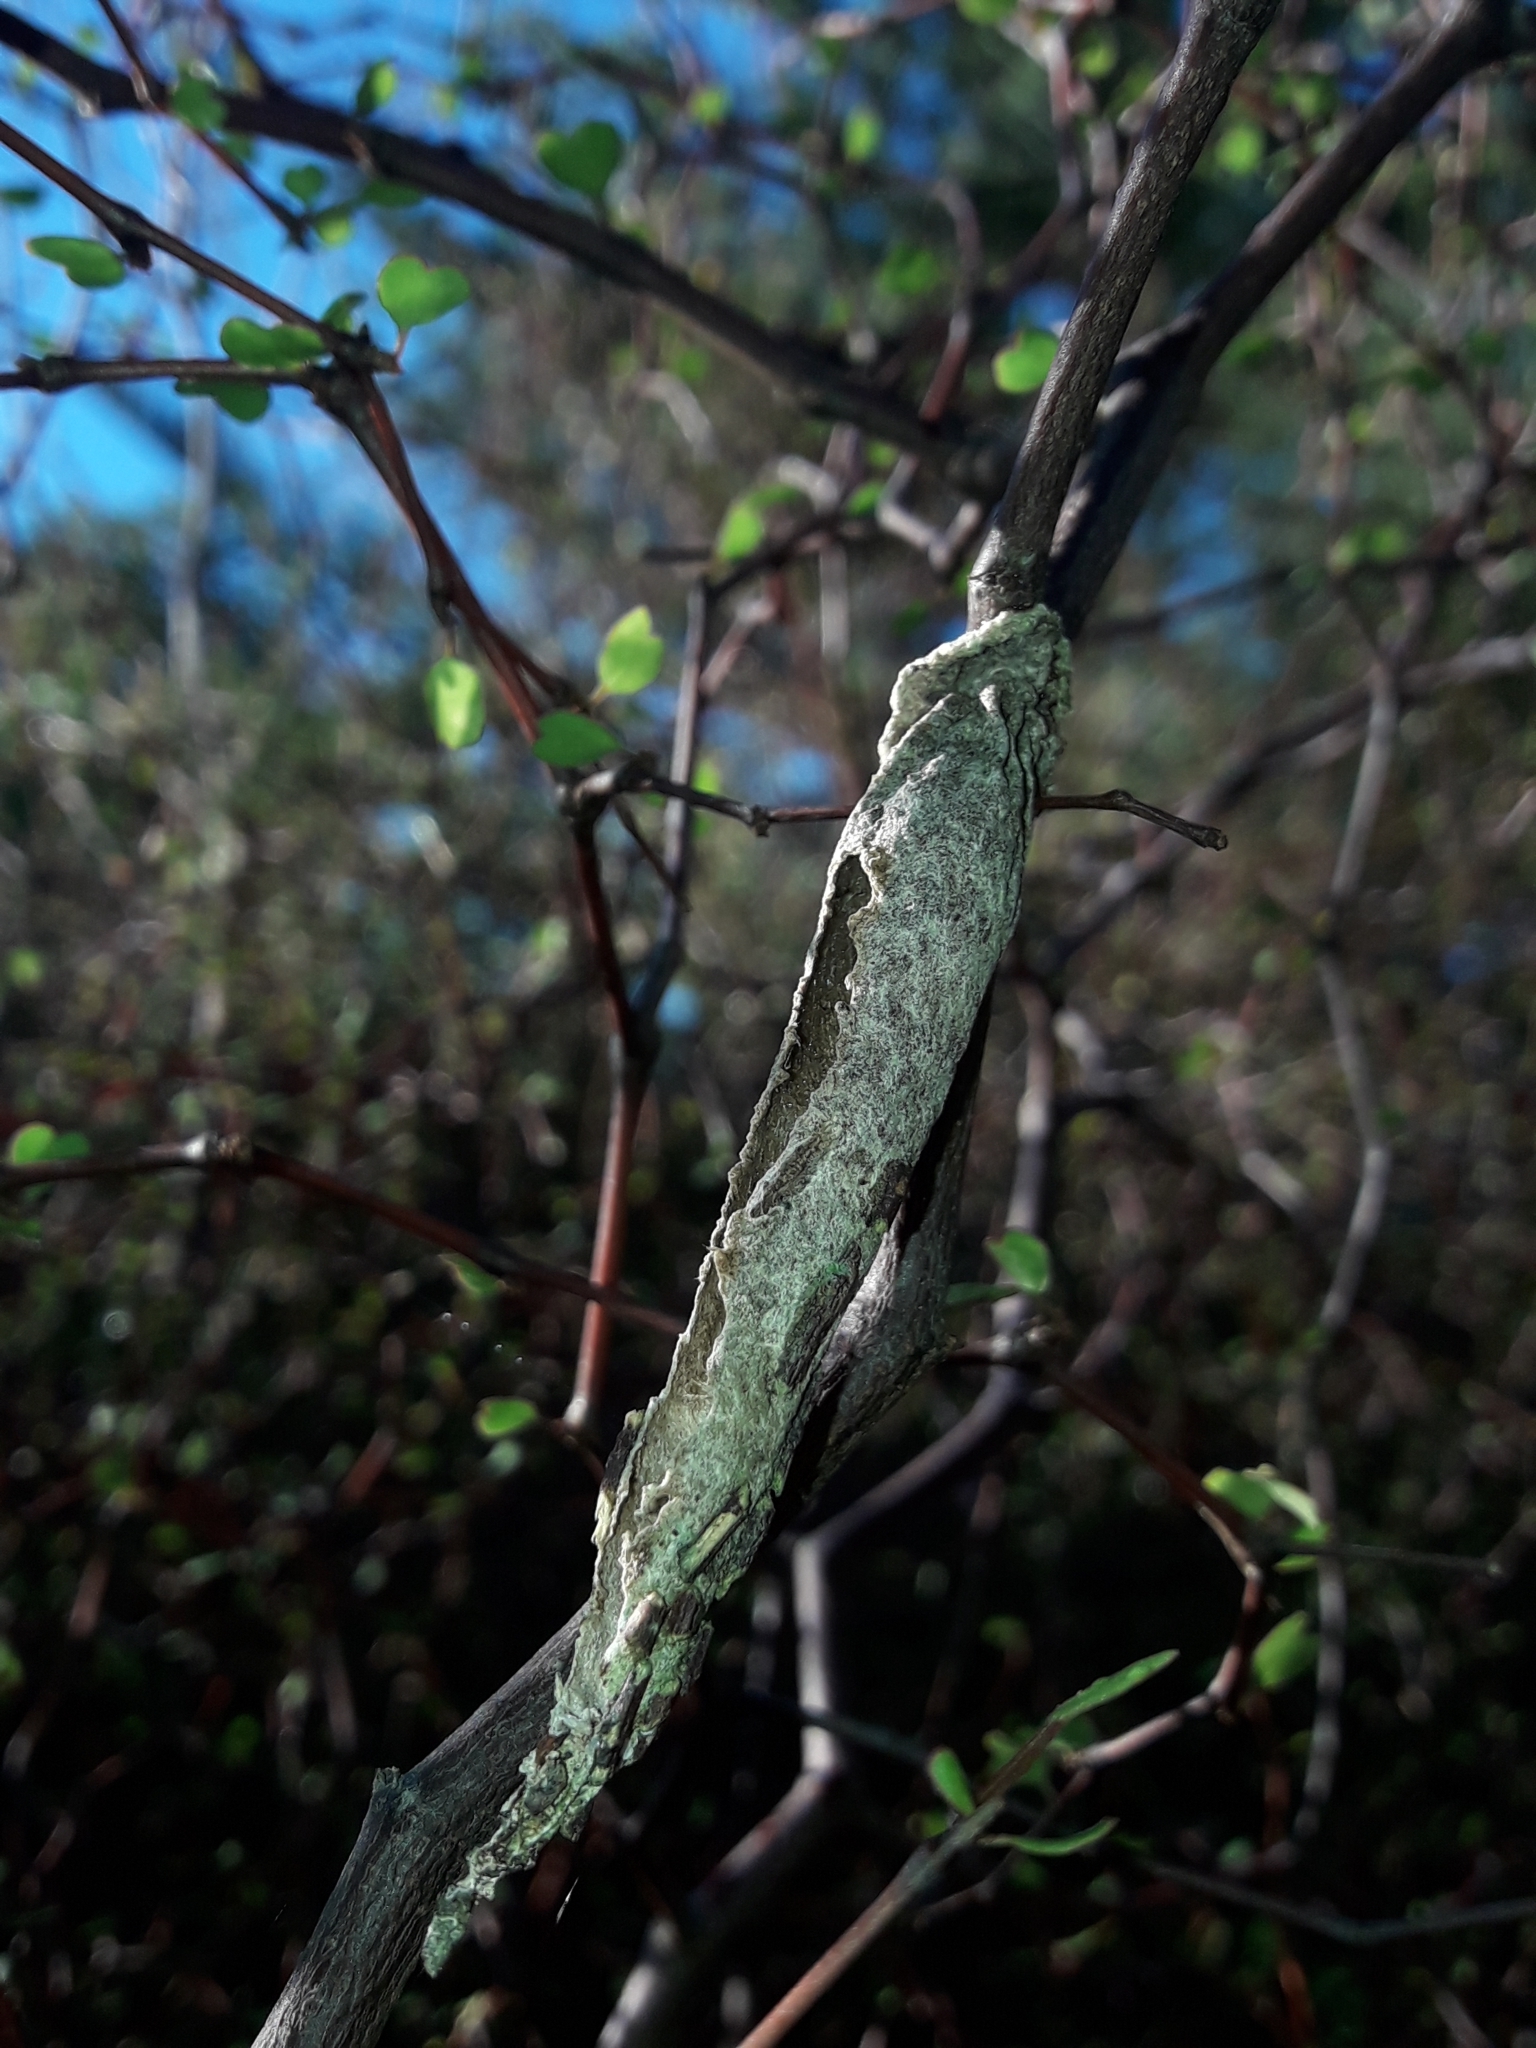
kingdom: Animalia
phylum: Arthropoda
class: Insecta
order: Lepidoptera
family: Psychidae
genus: Liothula
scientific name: Liothula omnivora
